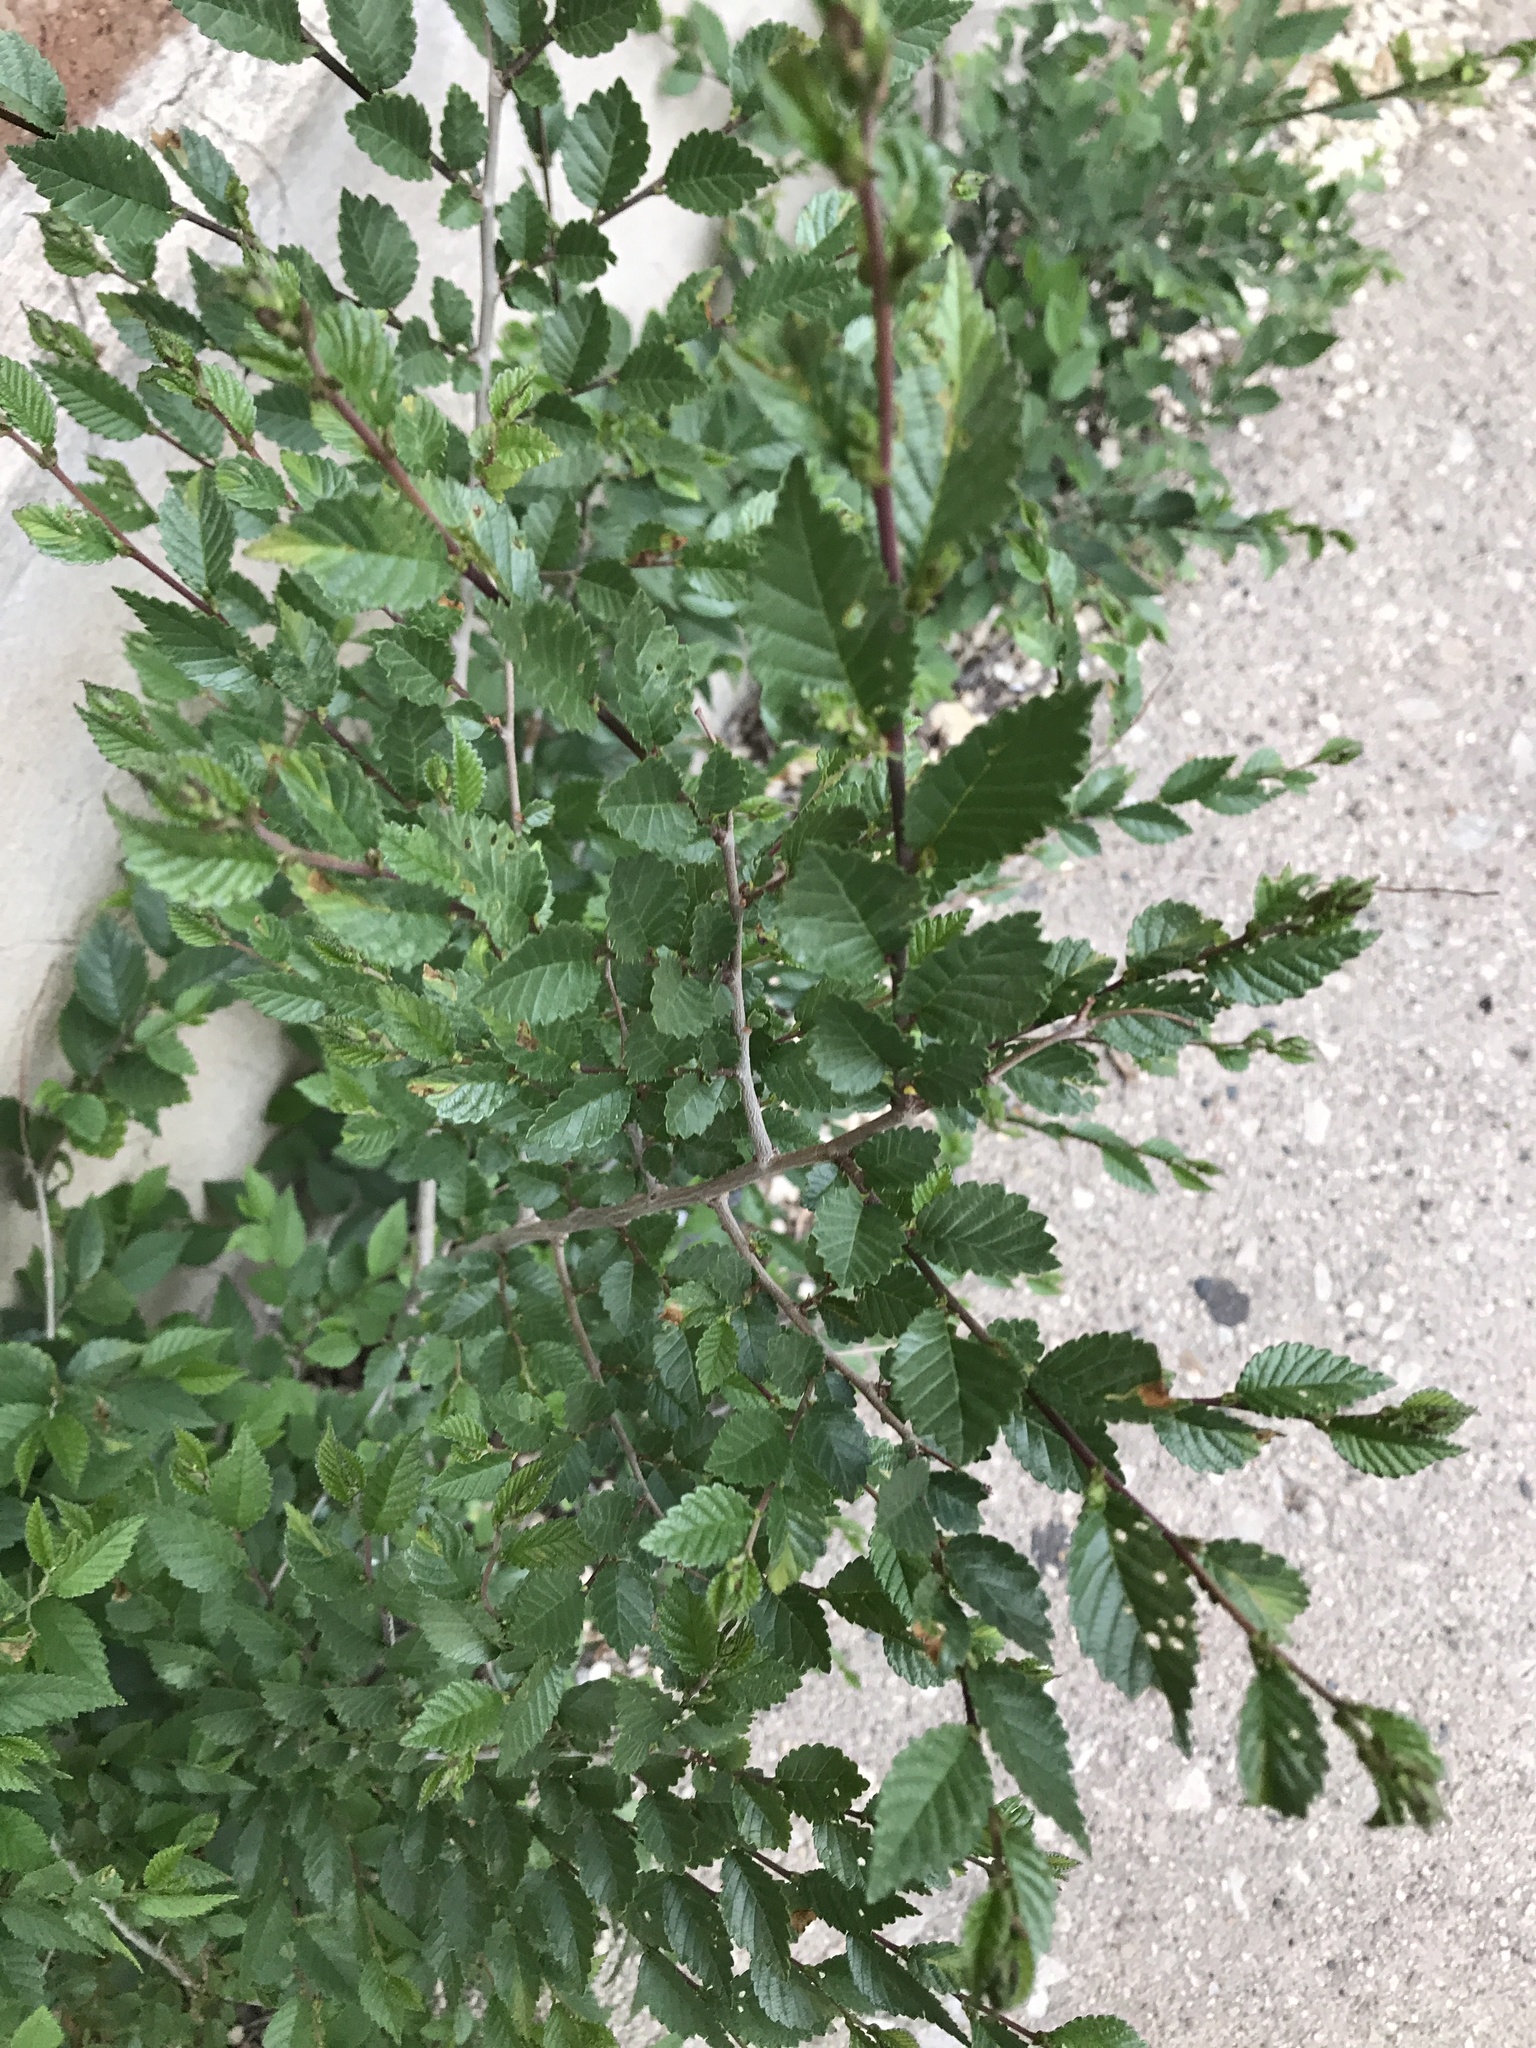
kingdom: Plantae
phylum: Tracheophyta
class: Magnoliopsida
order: Rosales
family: Ulmaceae
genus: Ulmus
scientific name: Ulmus pumila
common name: Siberian elm
